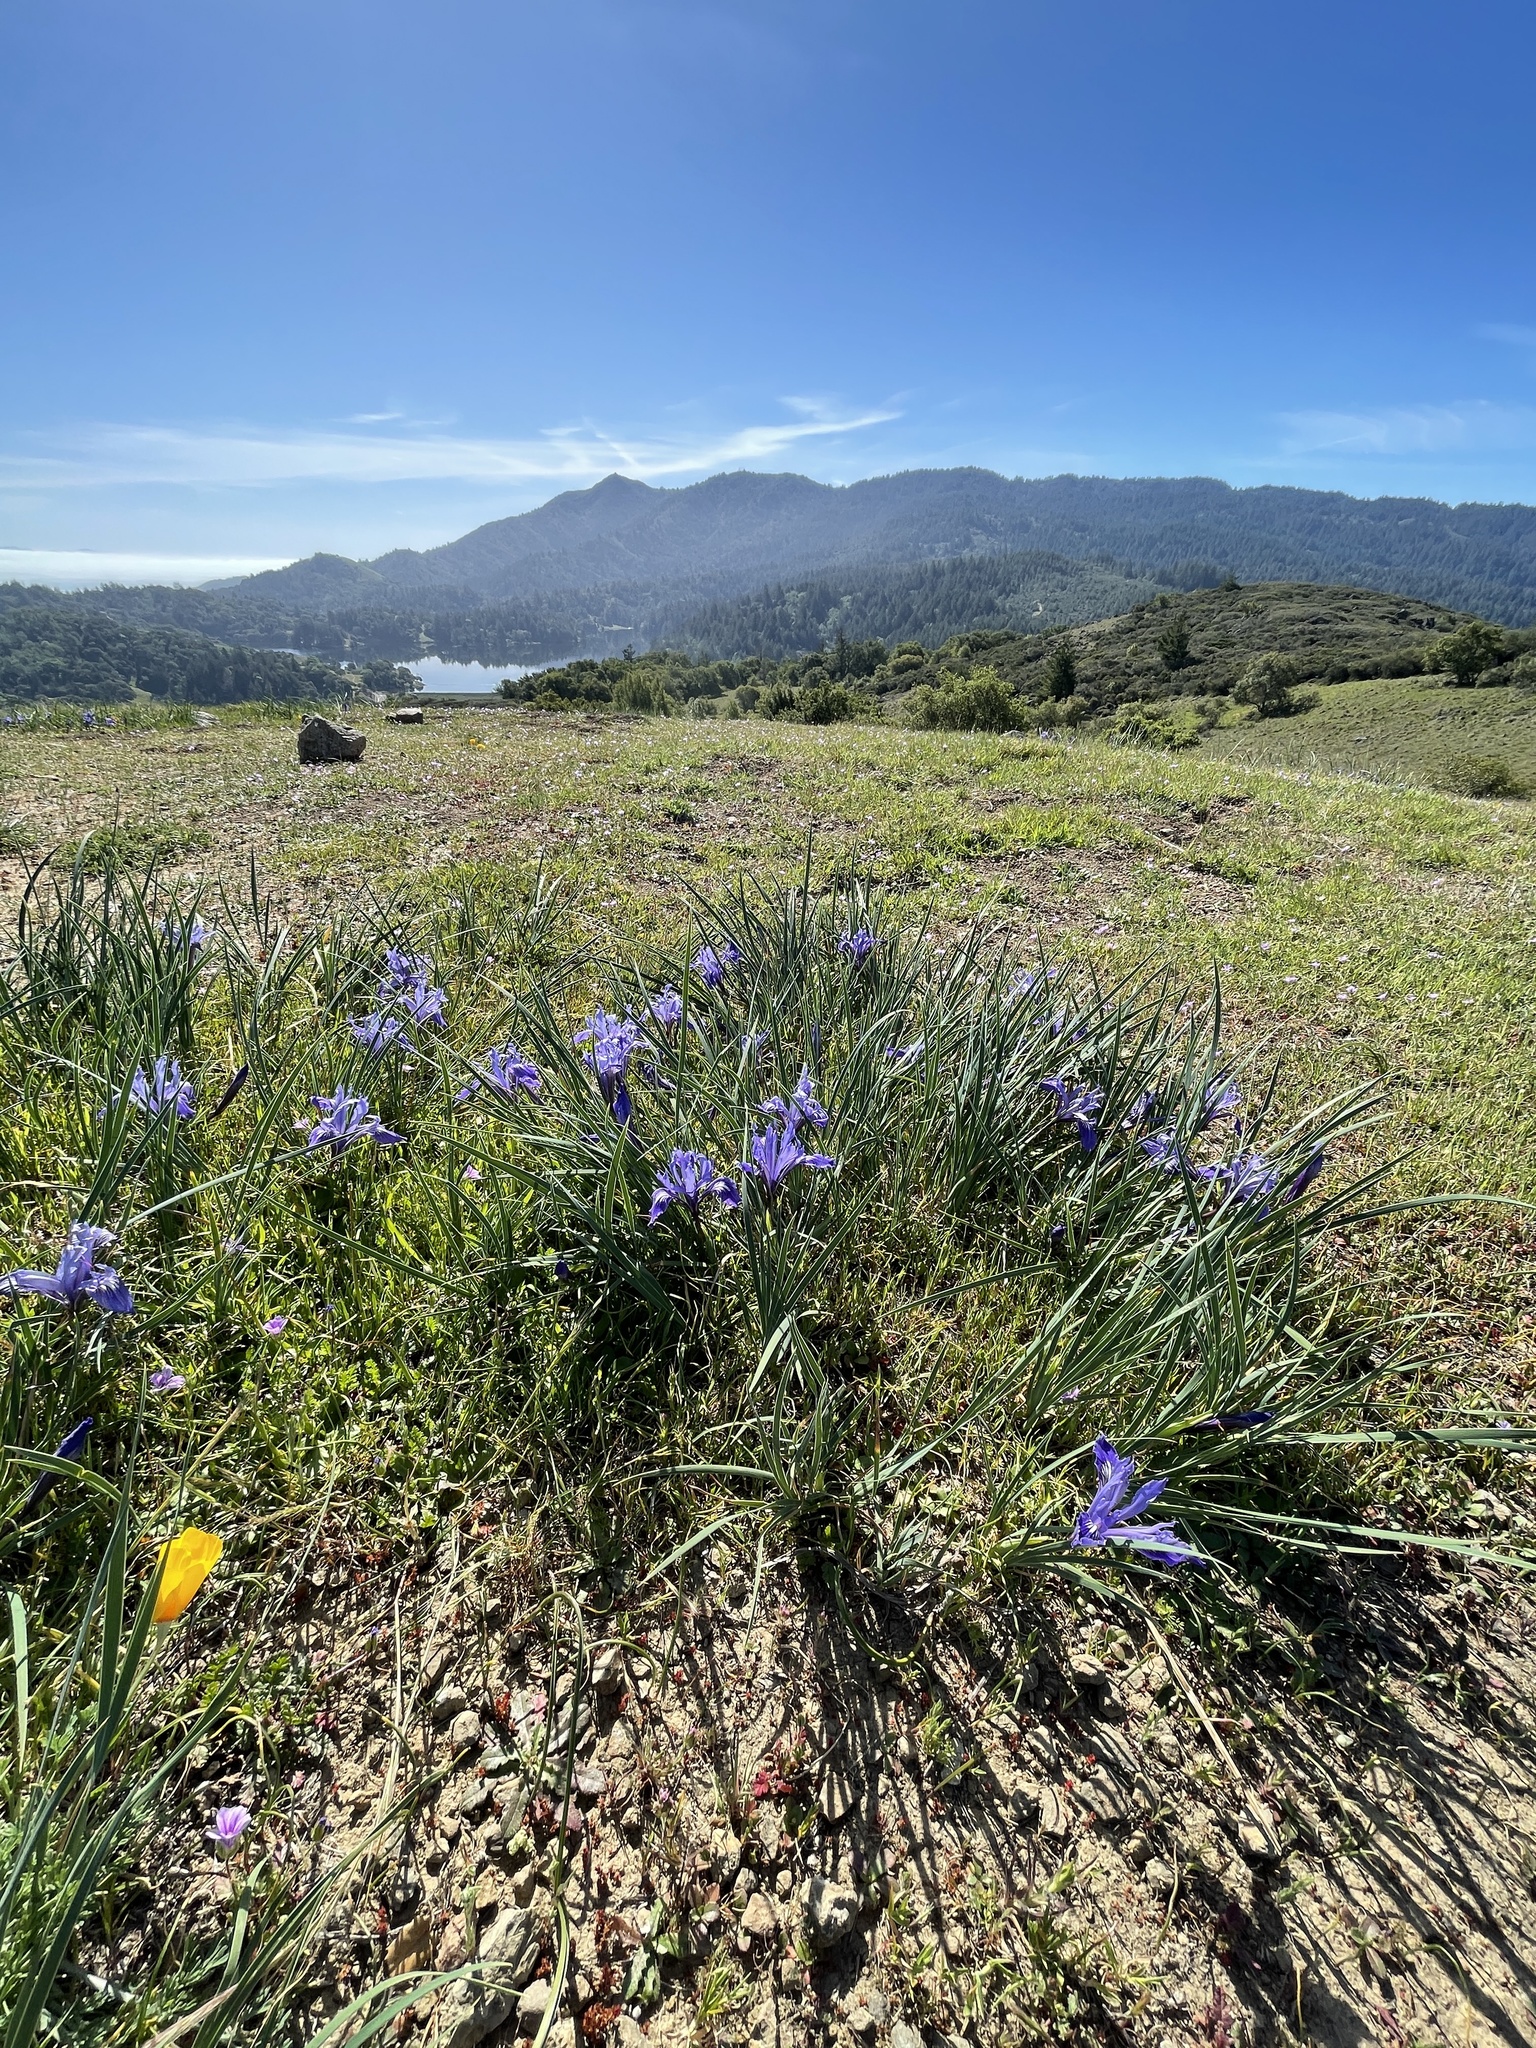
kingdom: Plantae
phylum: Tracheophyta
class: Liliopsida
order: Asparagales
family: Iridaceae
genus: Iris
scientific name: Iris macrosiphon
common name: Ground iris
